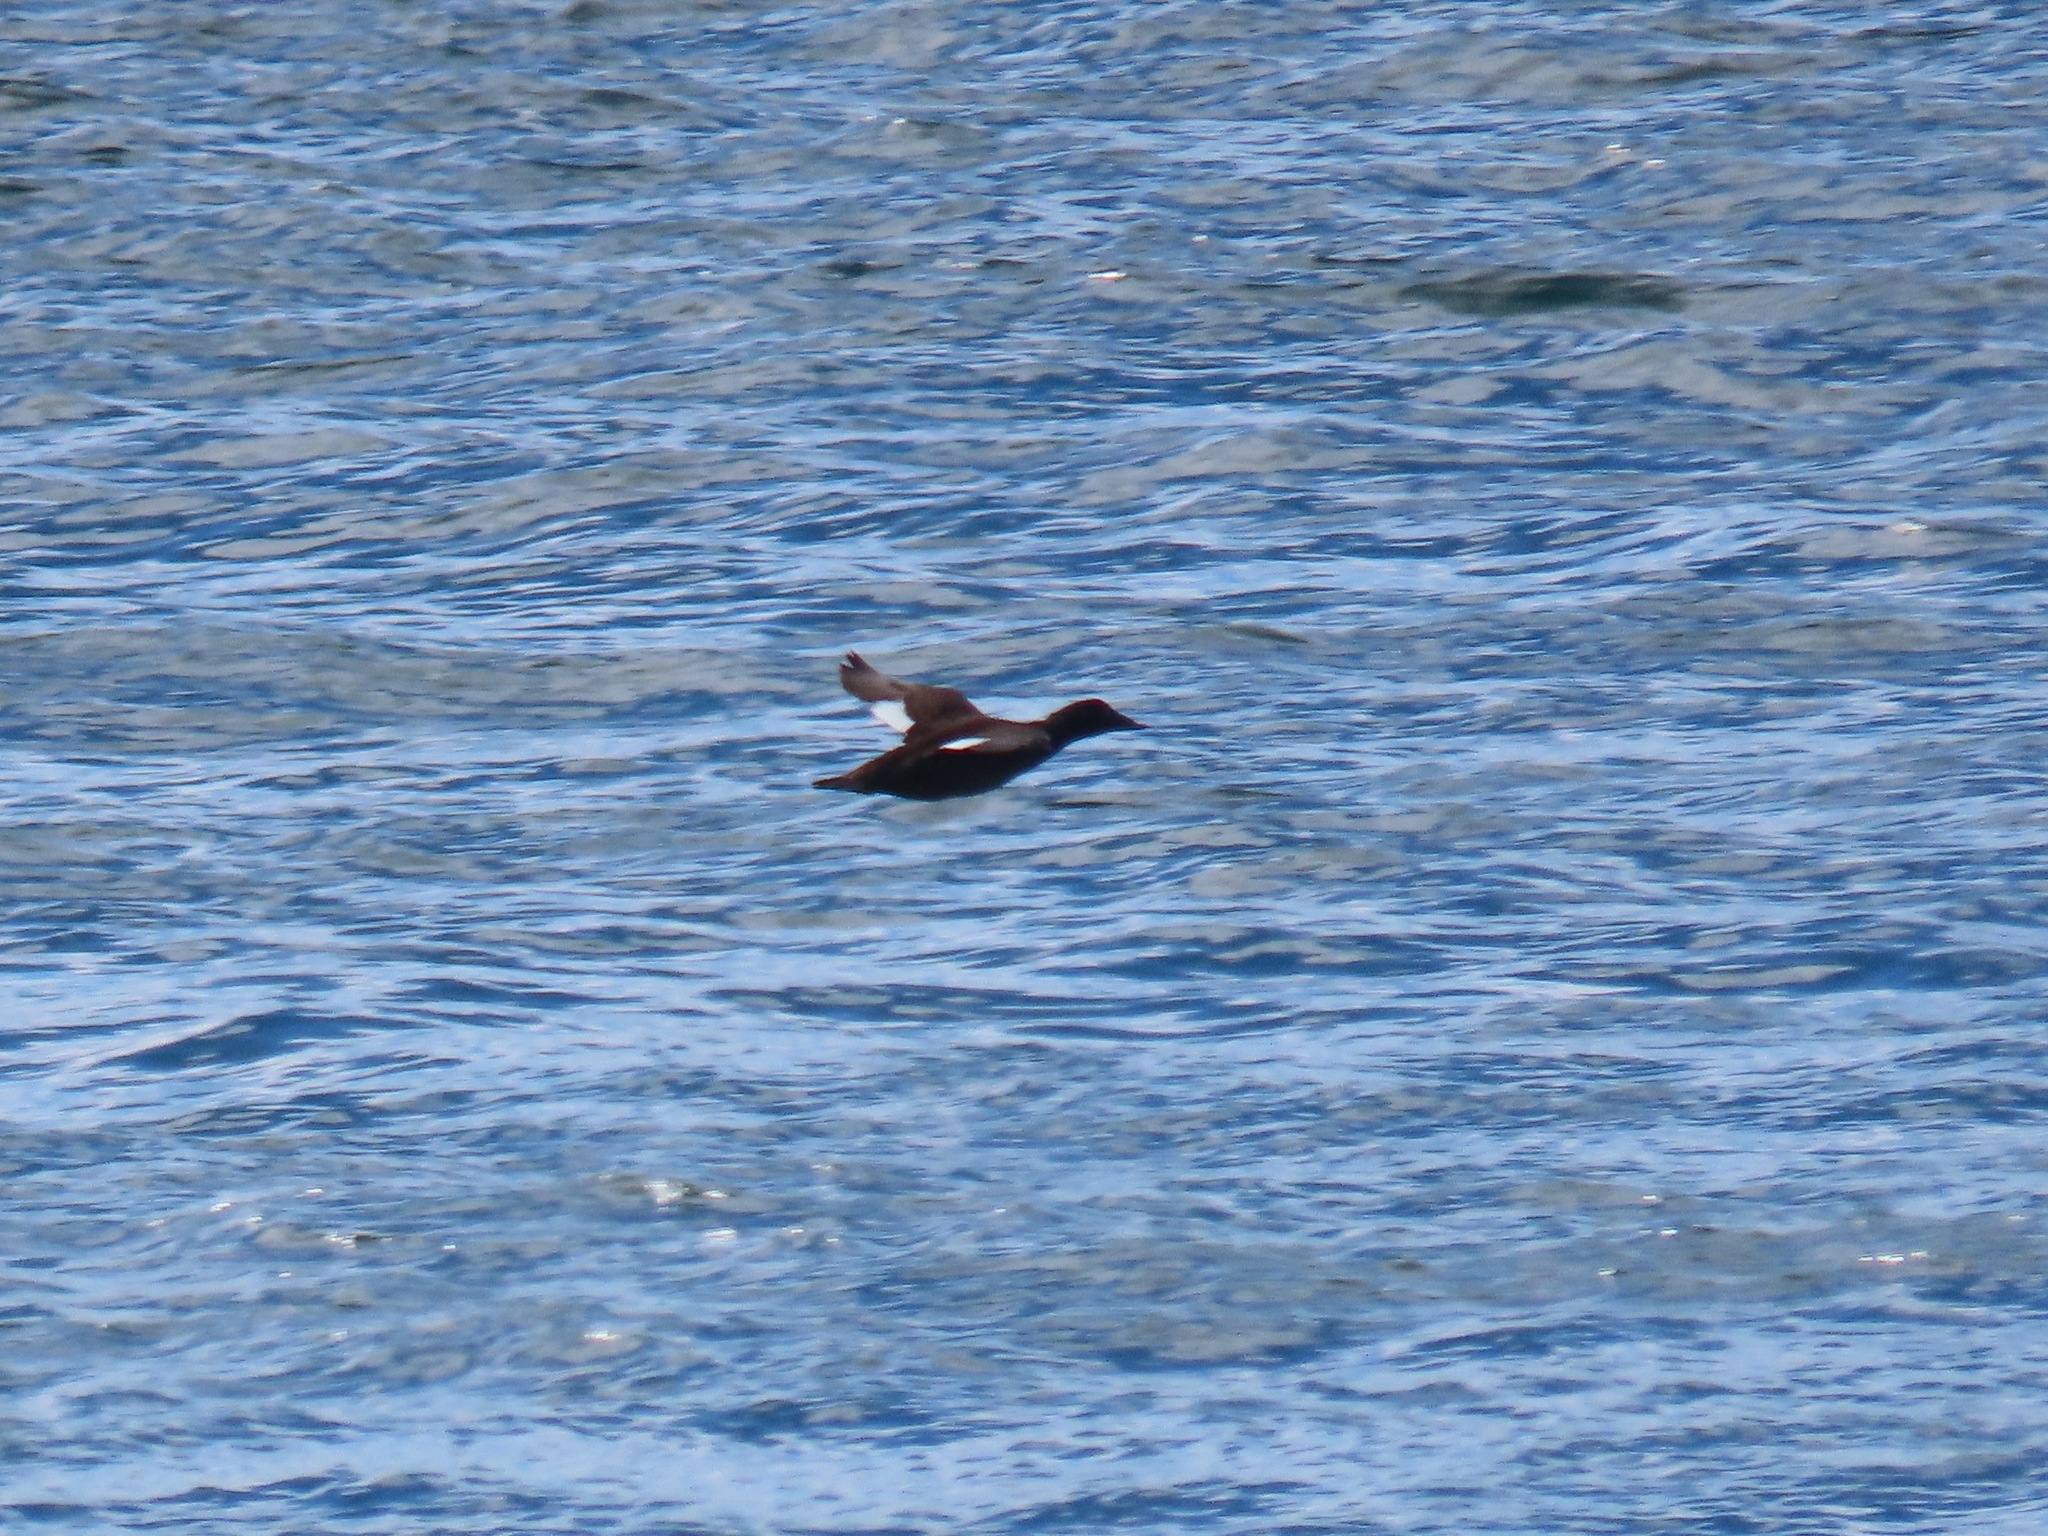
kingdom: Animalia
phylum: Chordata
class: Aves
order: Anseriformes
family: Anatidae
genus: Melanitta
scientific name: Melanitta deglandi
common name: White-winged scoter
